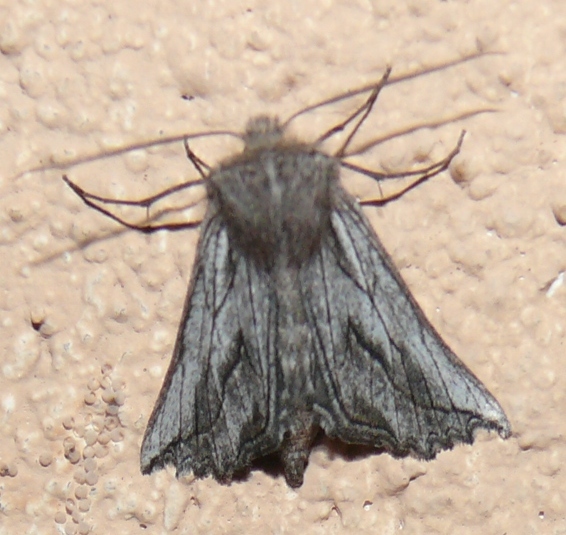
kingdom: Animalia
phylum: Arthropoda
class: Insecta
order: Lepidoptera
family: Geometridae
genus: Axiodes
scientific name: Axiodes
